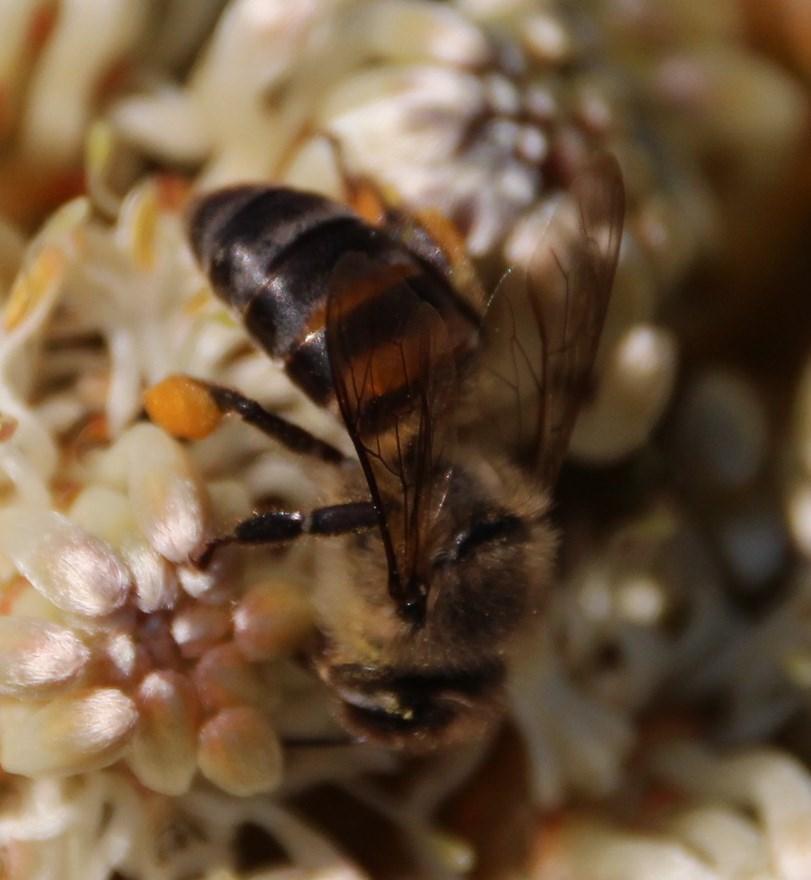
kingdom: Animalia
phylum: Arthropoda
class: Insecta
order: Hymenoptera
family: Apidae
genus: Apis
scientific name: Apis mellifera
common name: Honey bee
